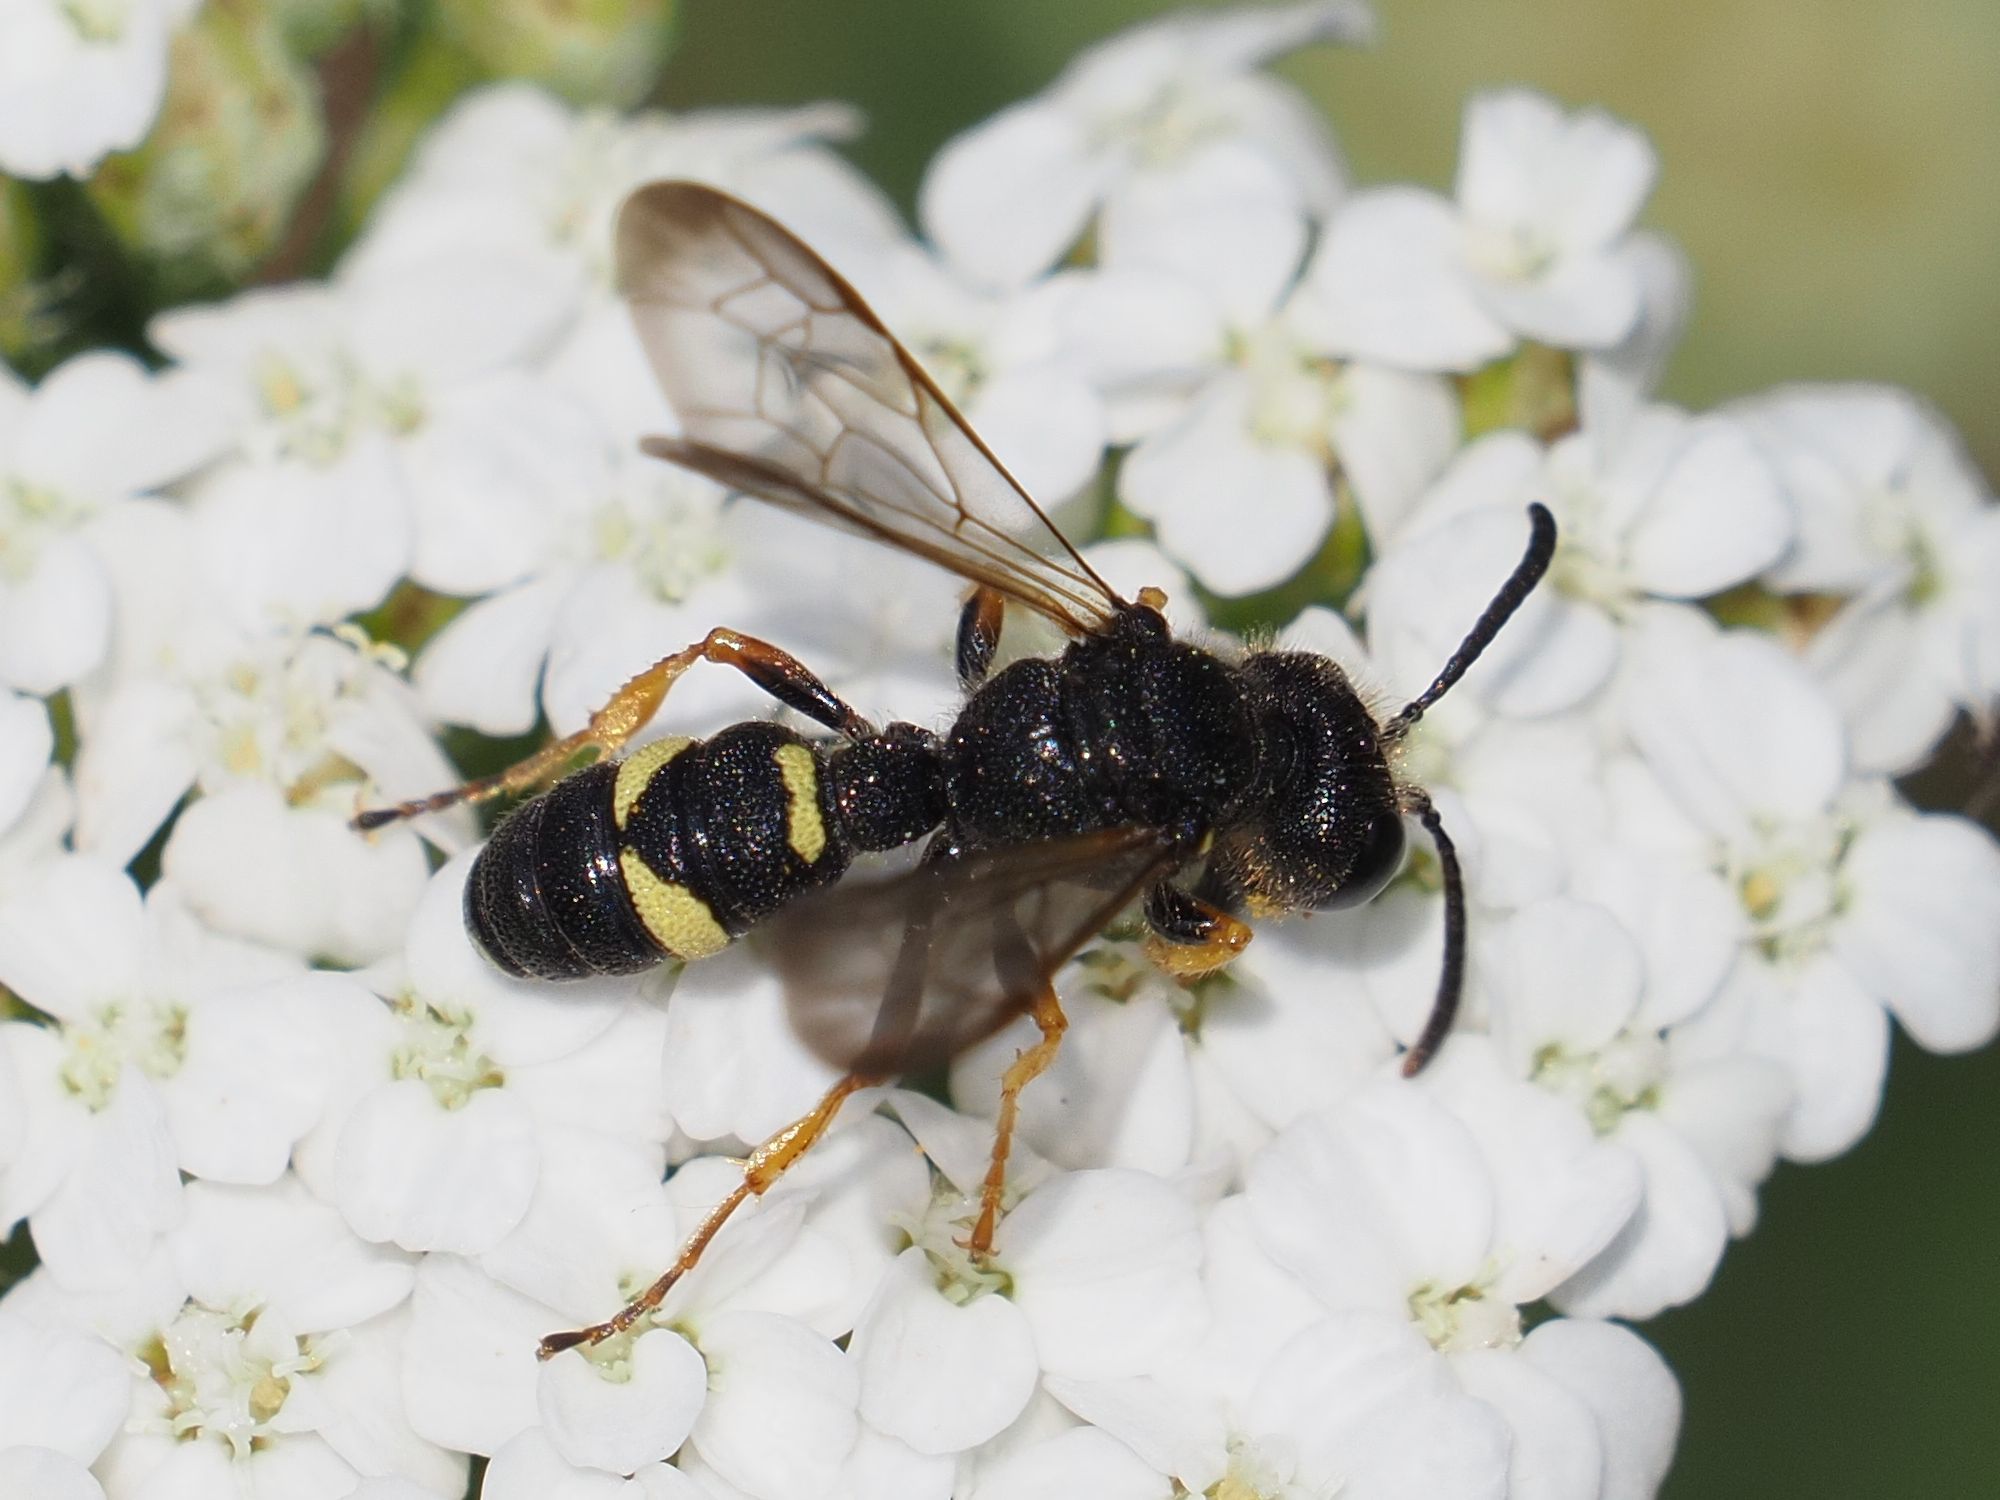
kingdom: Animalia
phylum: Arthropoda
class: Insecta
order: Hymenoptera
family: Crabronidae
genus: Cerceris
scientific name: Cerceris rybyensis
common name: Ornate tailed digger wasp
